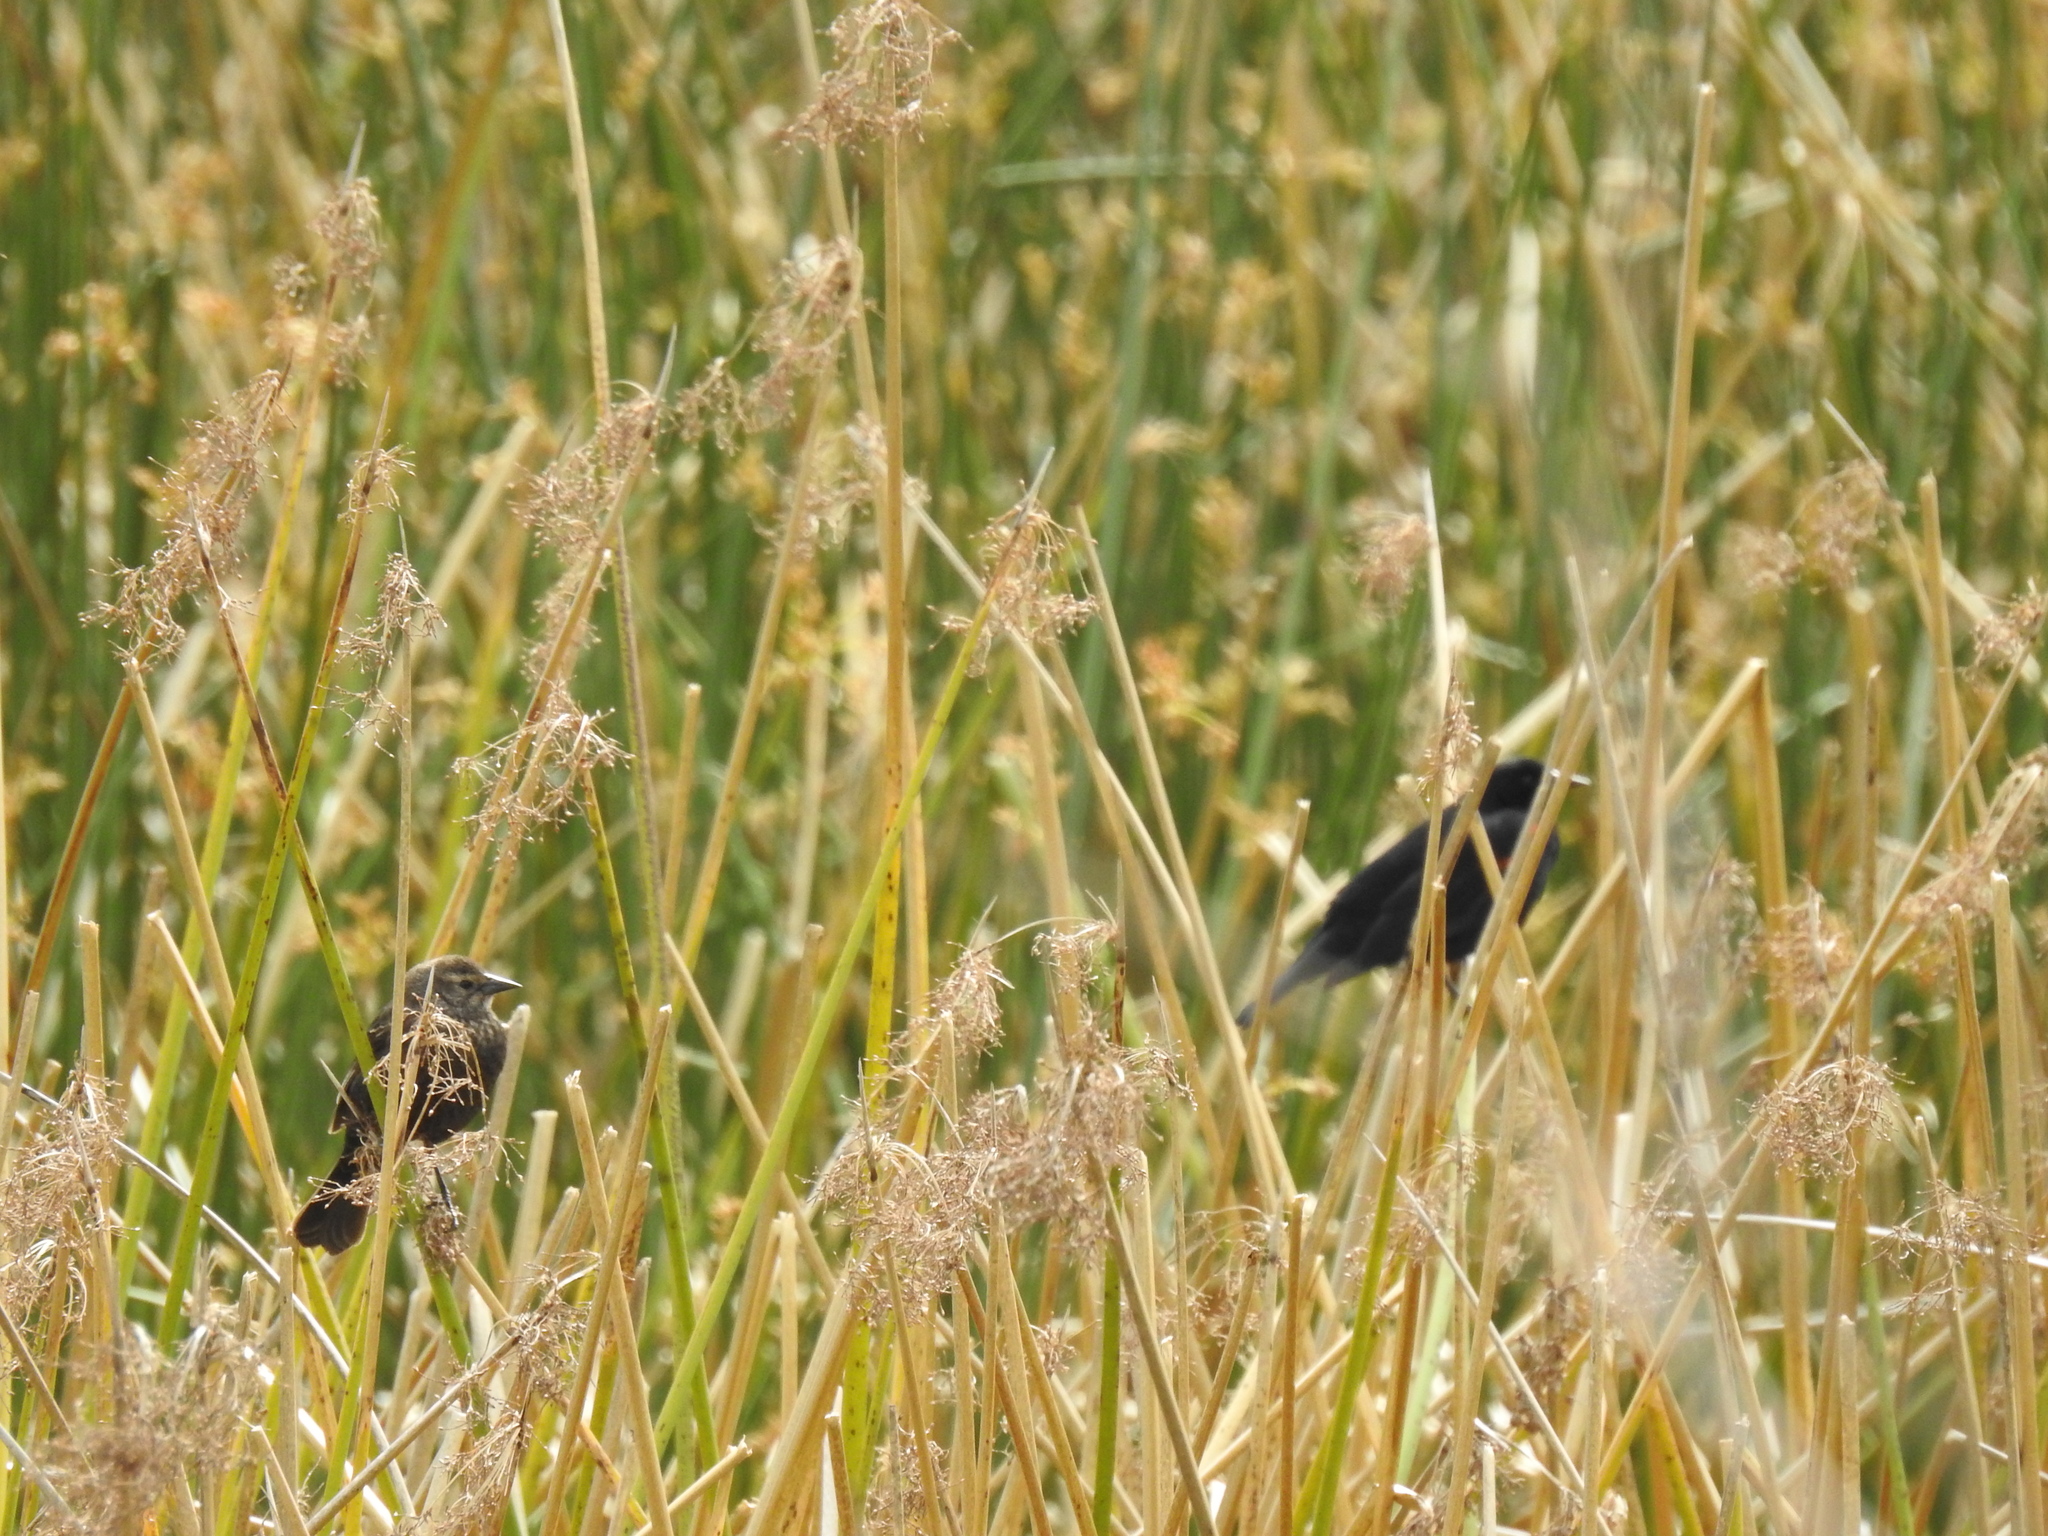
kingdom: Animalia
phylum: Chordata
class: Aves
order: Passeriformes
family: Icteridae
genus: Agelaius
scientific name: Agelaius phoeniceus
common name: Red-winged blackbird
